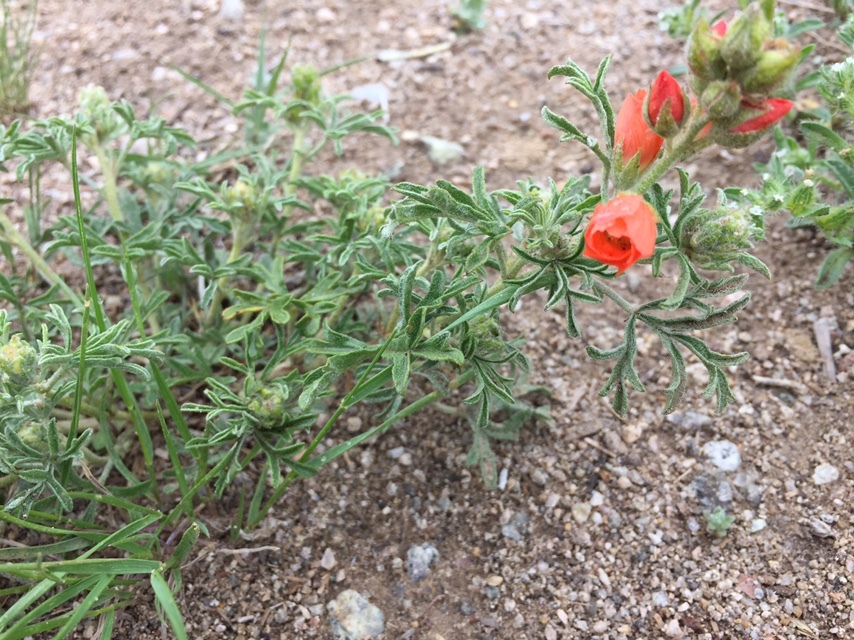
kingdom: Plantae
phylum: Tracheophyta
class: Magnoliopsida
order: Malvales
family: Malvaceae
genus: Sphaeralcea
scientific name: Sphaeralcea coccinea
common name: Moss-rose
